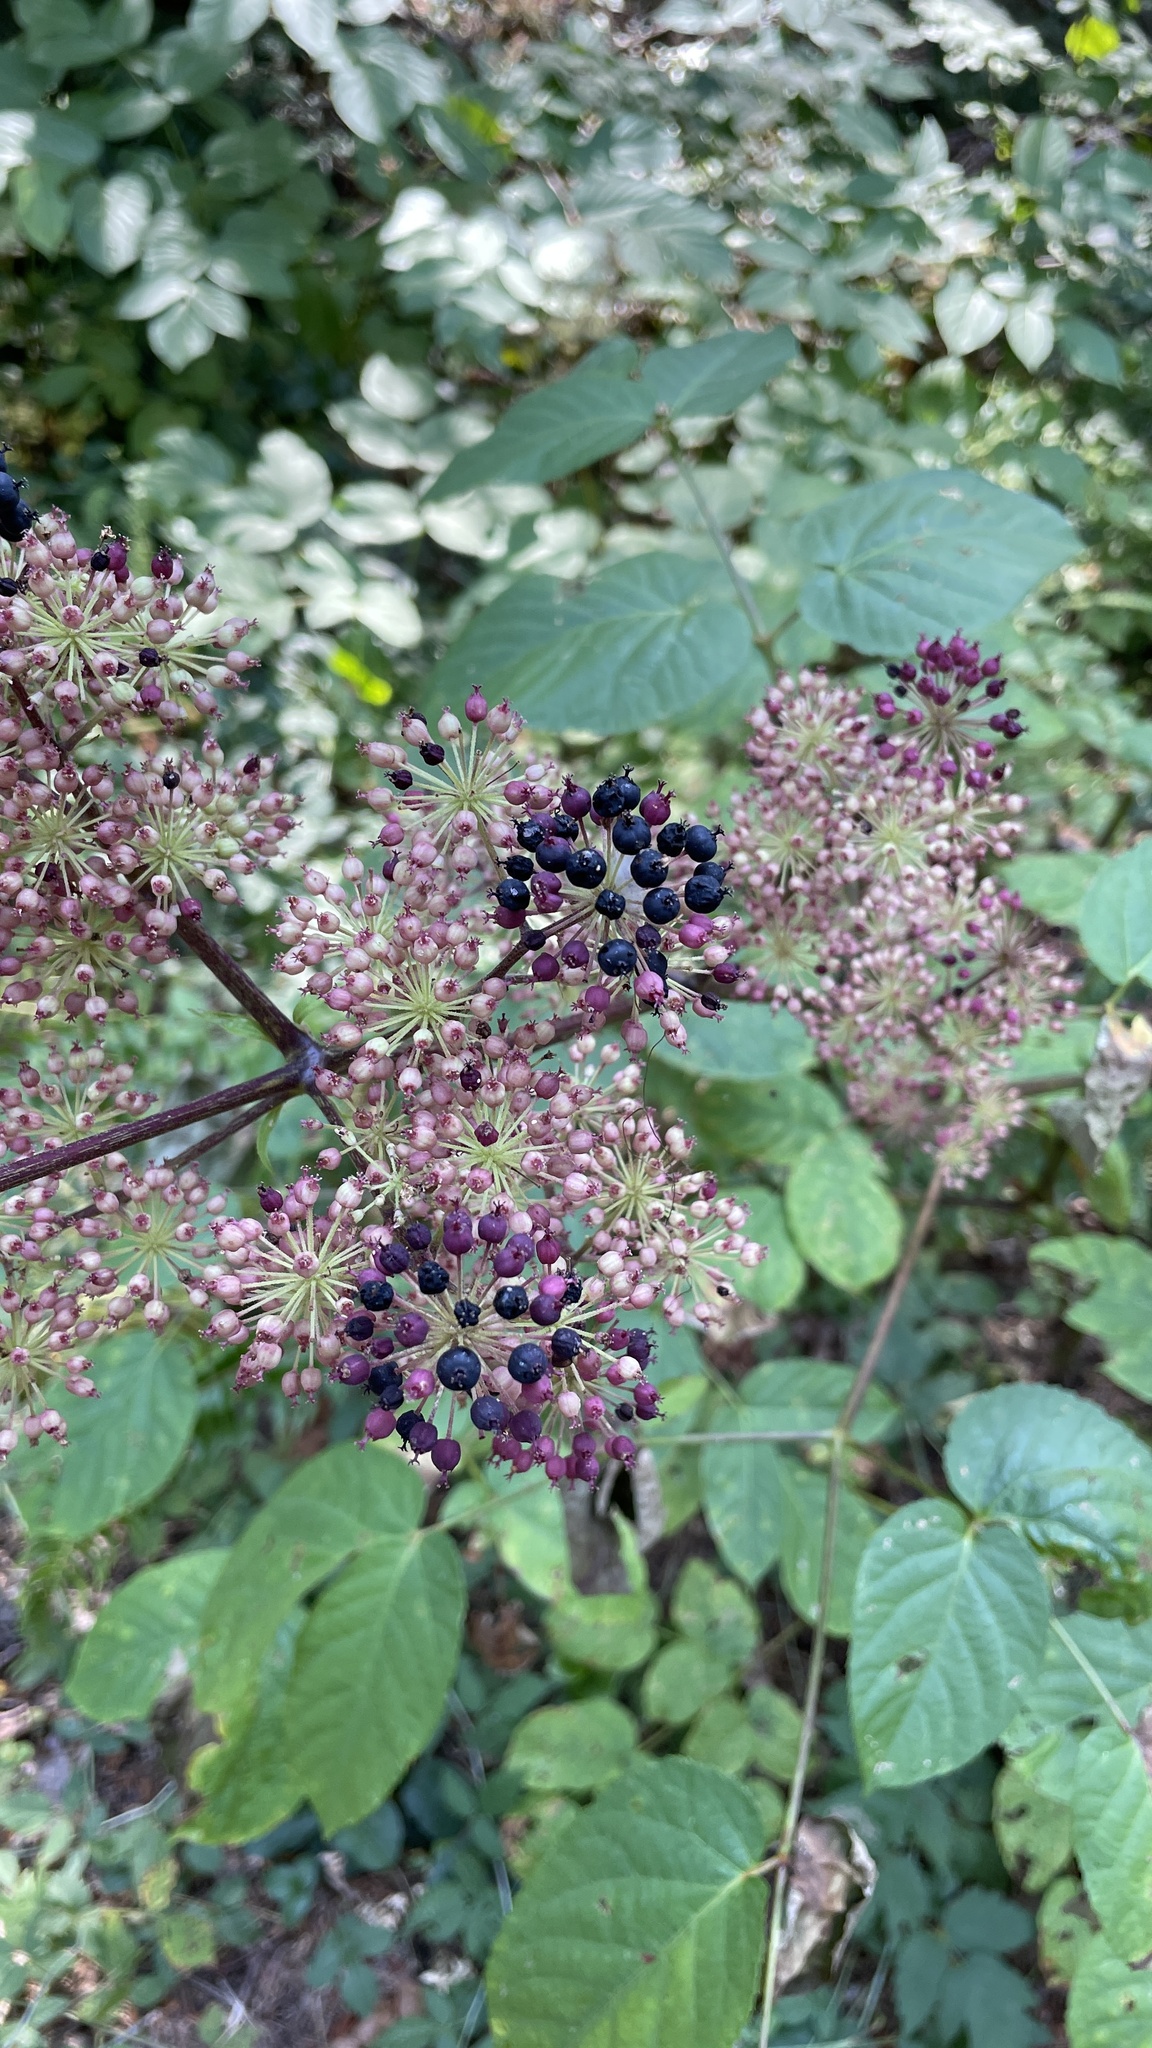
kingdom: Plantae
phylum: Tracheophyta
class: Magnoliopsida
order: Apiales
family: Araliaceae
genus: Aralia
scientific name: Aralia californica
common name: California-ginseng
